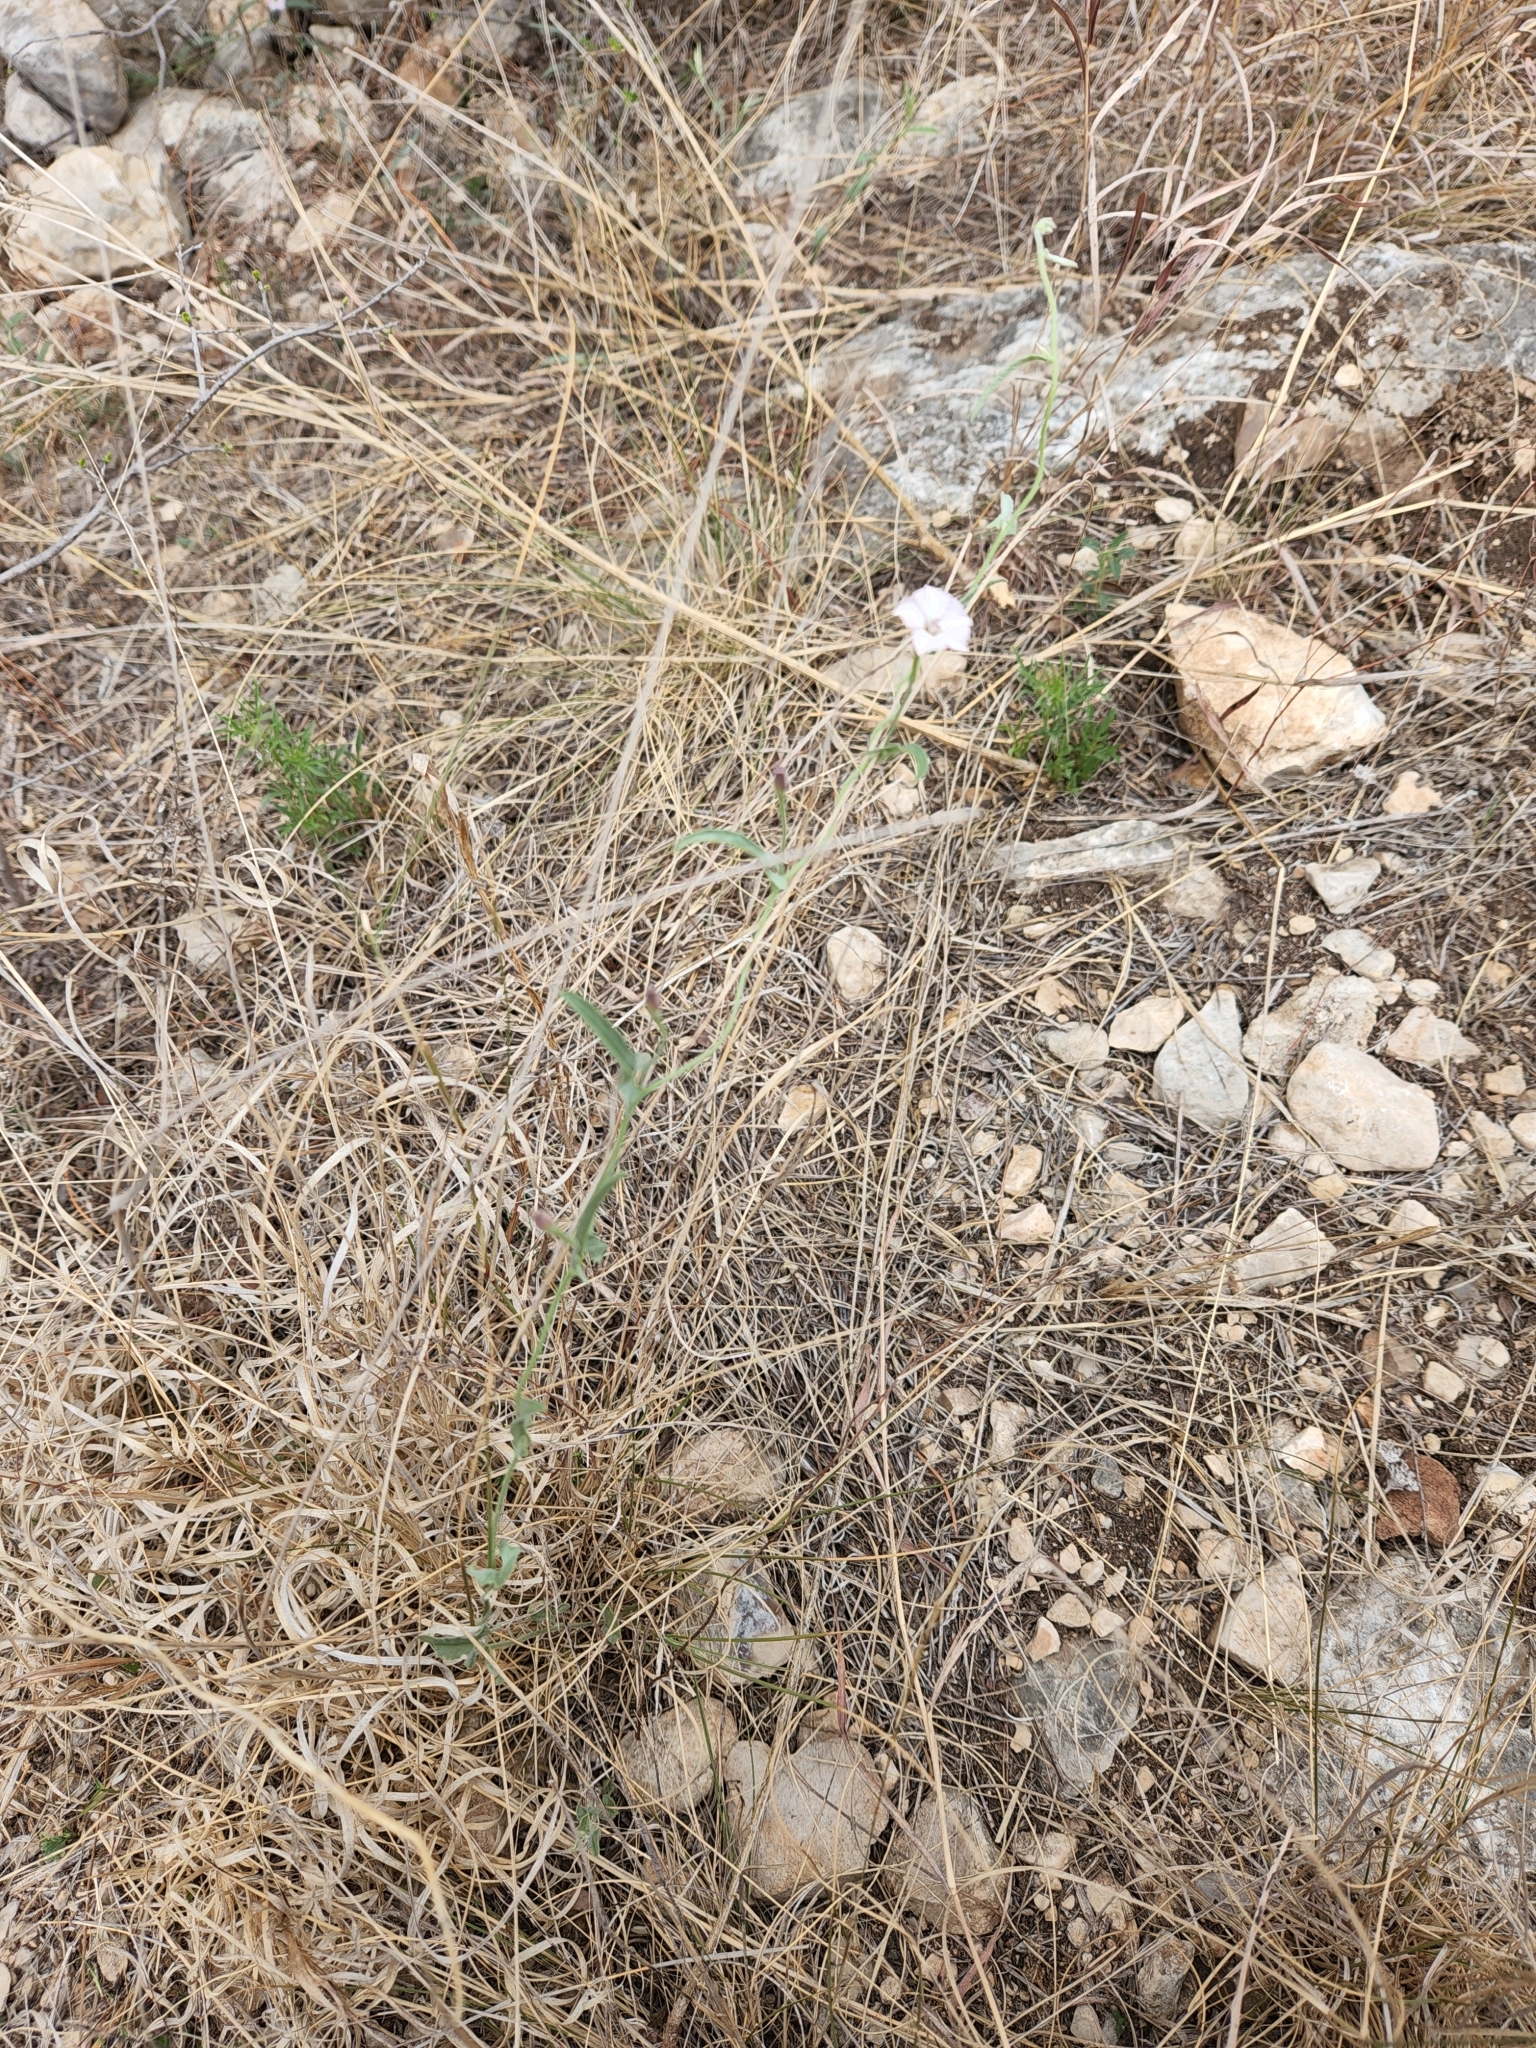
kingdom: Plantae
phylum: Tracheophyta
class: Magnoliopsida
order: Solanales
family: Convolvulaceae
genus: Convolvulus
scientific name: Convolvulus equitans
